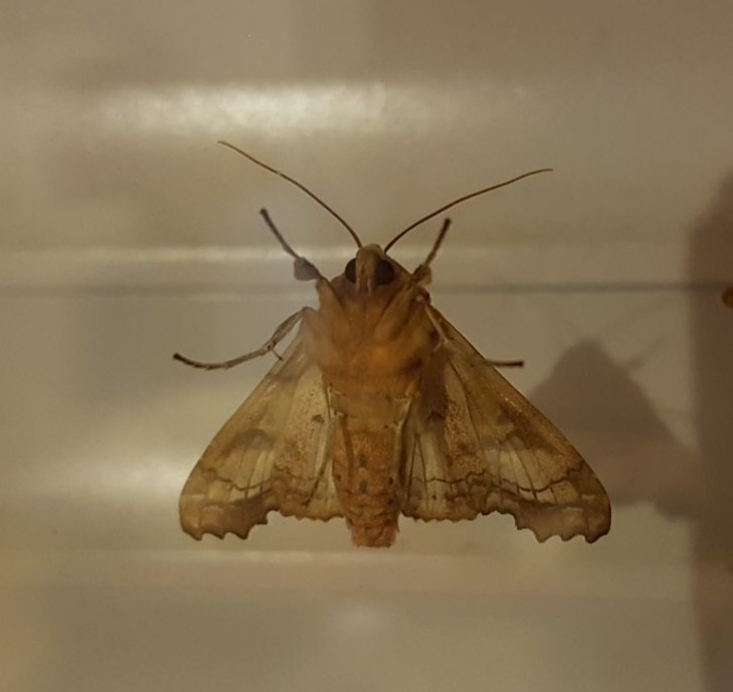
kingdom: Animalia
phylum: Arthropoda
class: Insecta
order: Lepidoptera
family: Noctuidae
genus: Phlogophora
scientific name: Phlogophora meticulosa
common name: Angle shades
